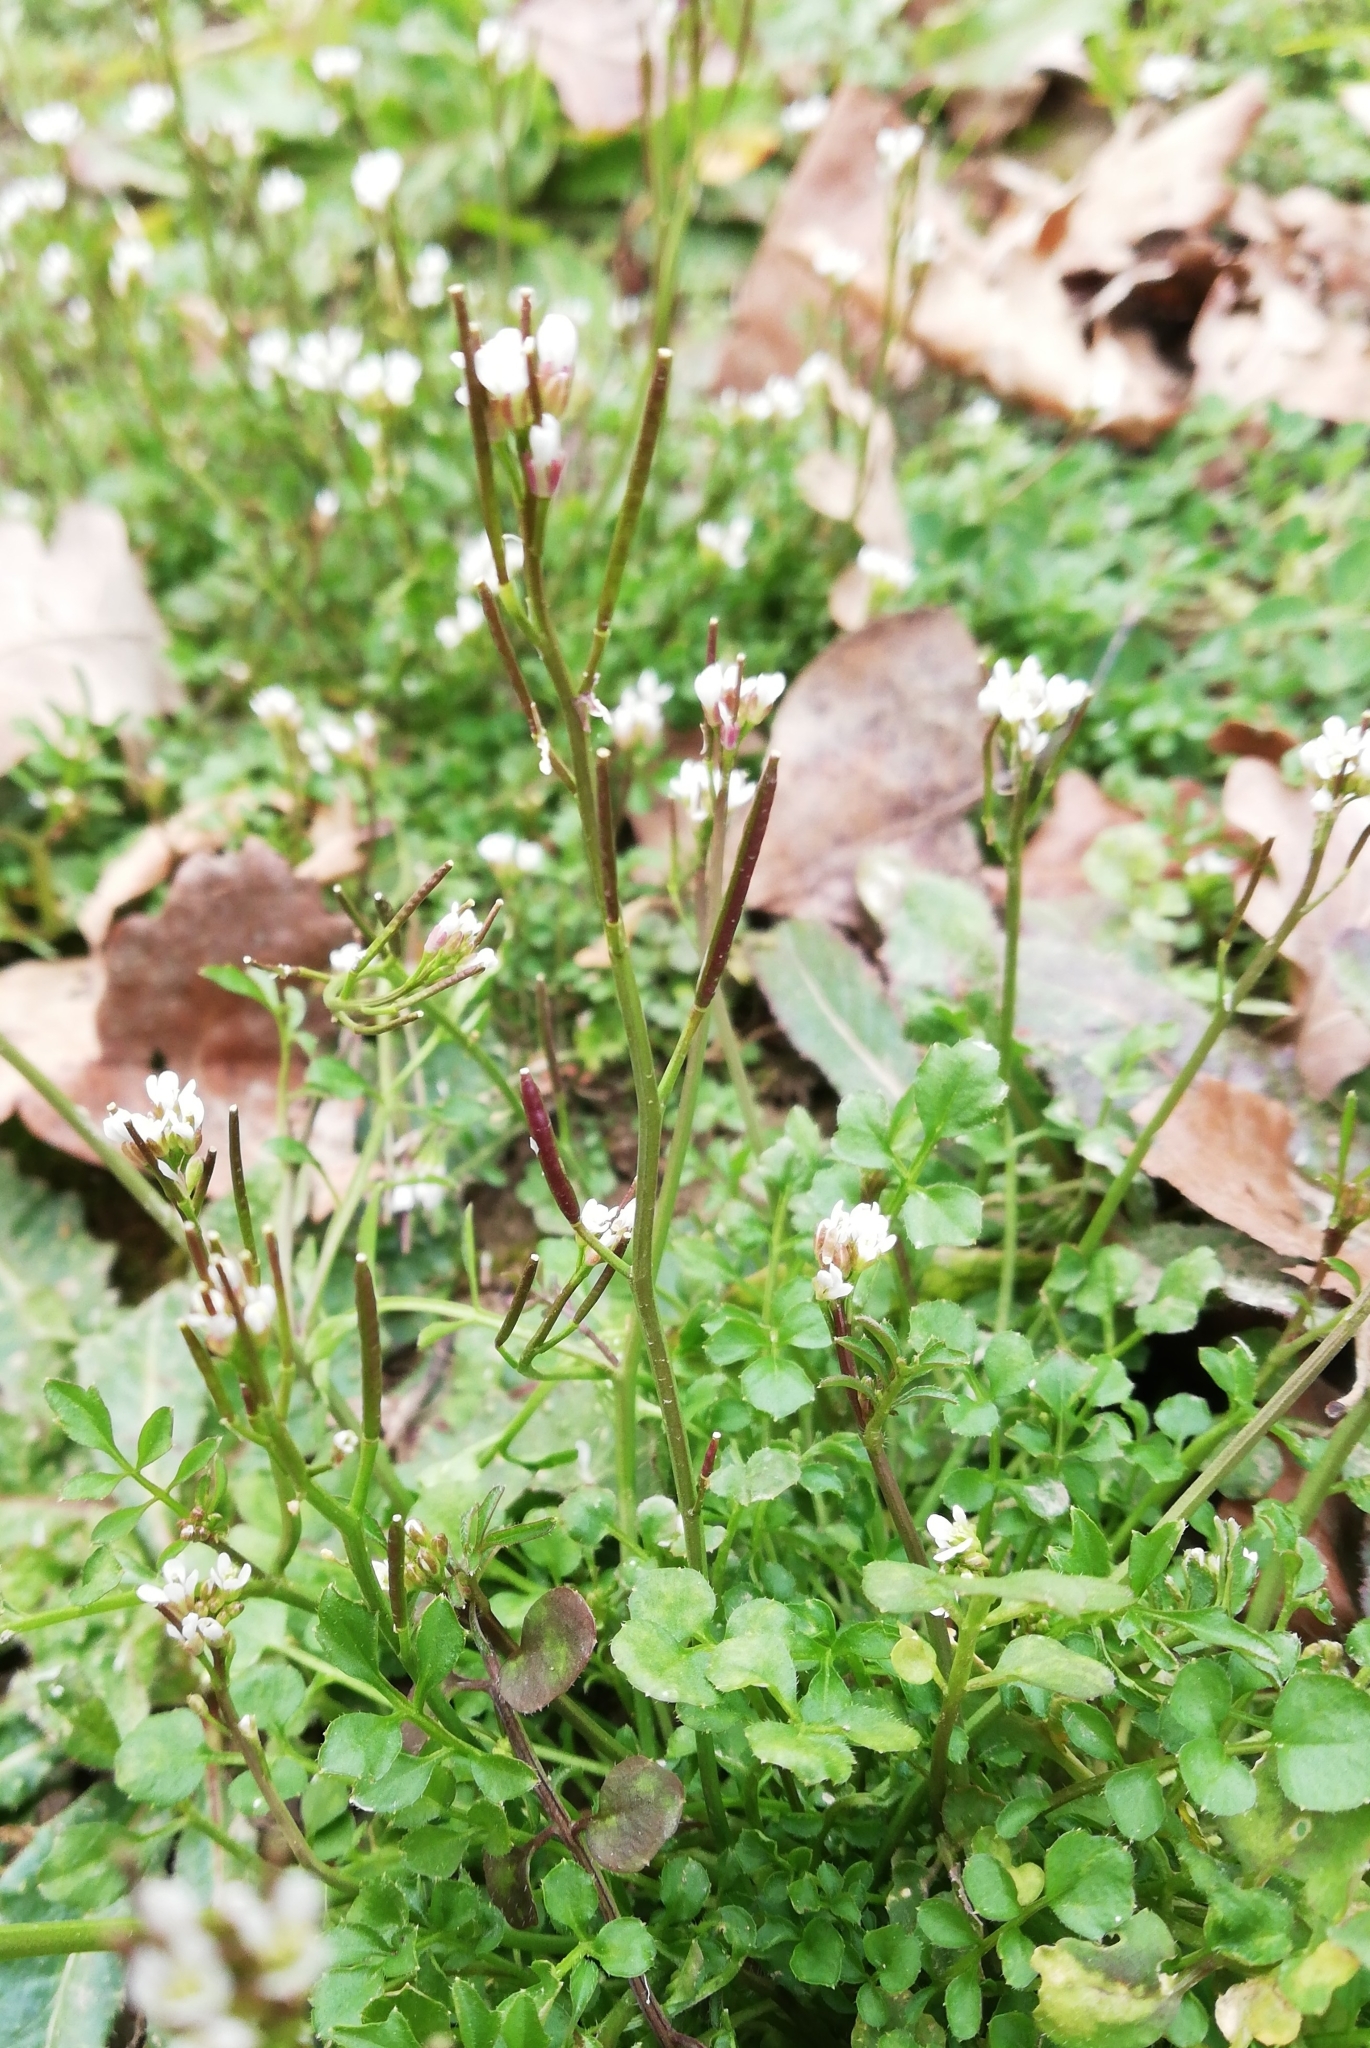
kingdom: Plantae
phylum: Tracheophyta
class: Magnoliopsida
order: Brassicales
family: Brassicaceae
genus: Cardamine
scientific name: Cardamine hirsuta
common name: Hairy bittercress
